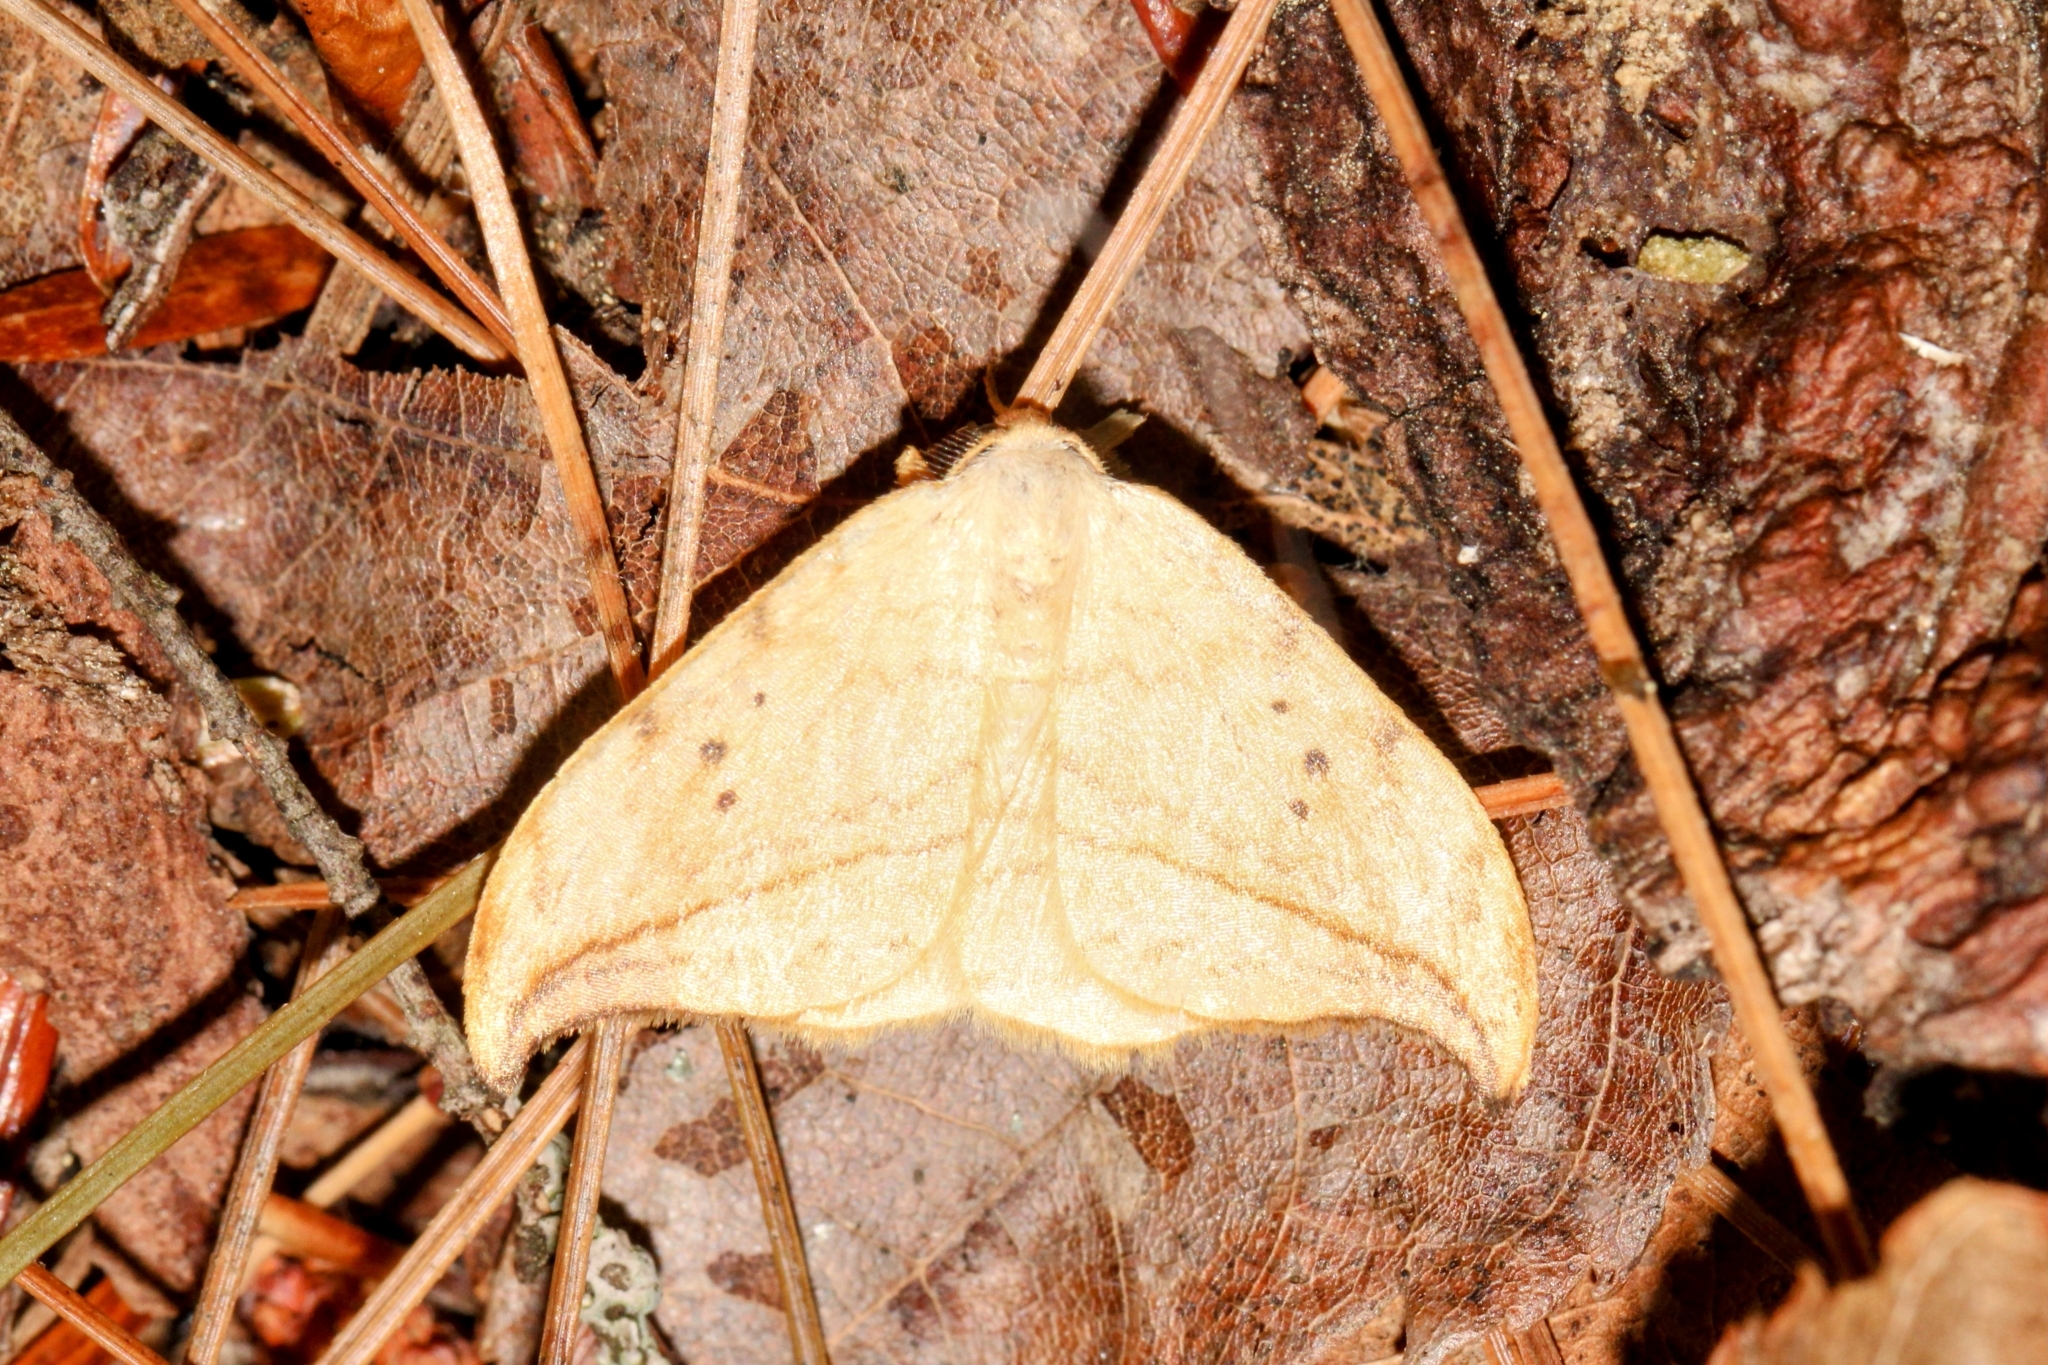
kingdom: Animalia
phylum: Arthropoda
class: Insecta
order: Lepidoptera
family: Drepanidae
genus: Drepana
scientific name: Drepana arcuata
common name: Arched hooktip moth
